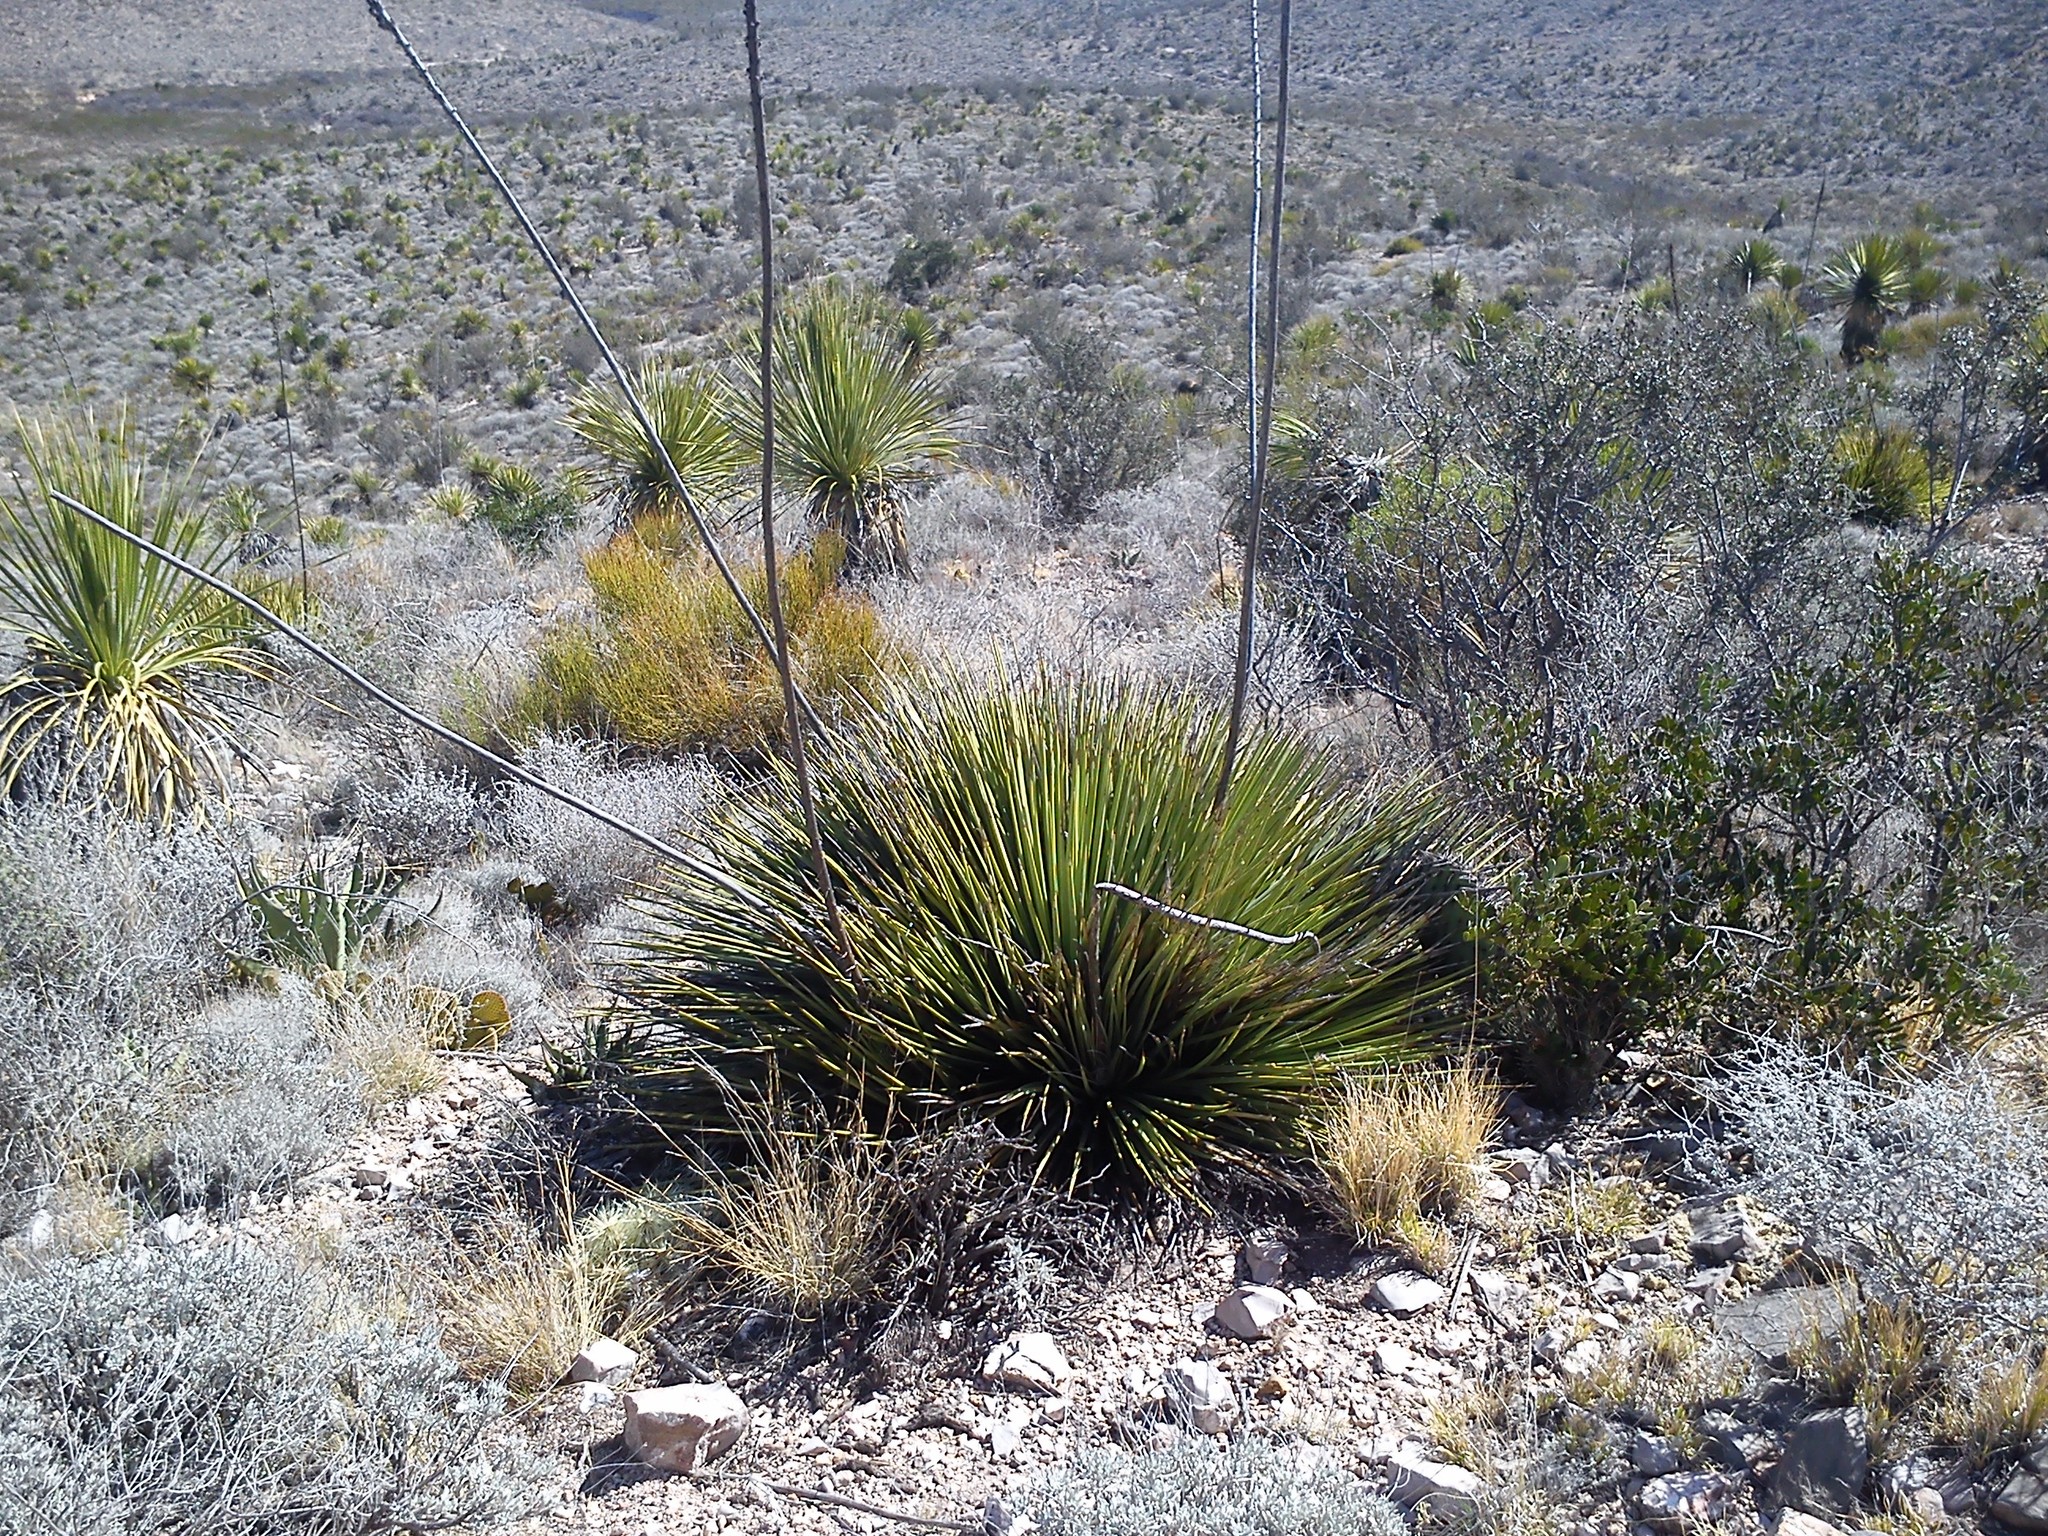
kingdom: Plantae
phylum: Tracheophyta
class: Liliopsida
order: Asparagales
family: Asparagaceae
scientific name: Asparagaceae
